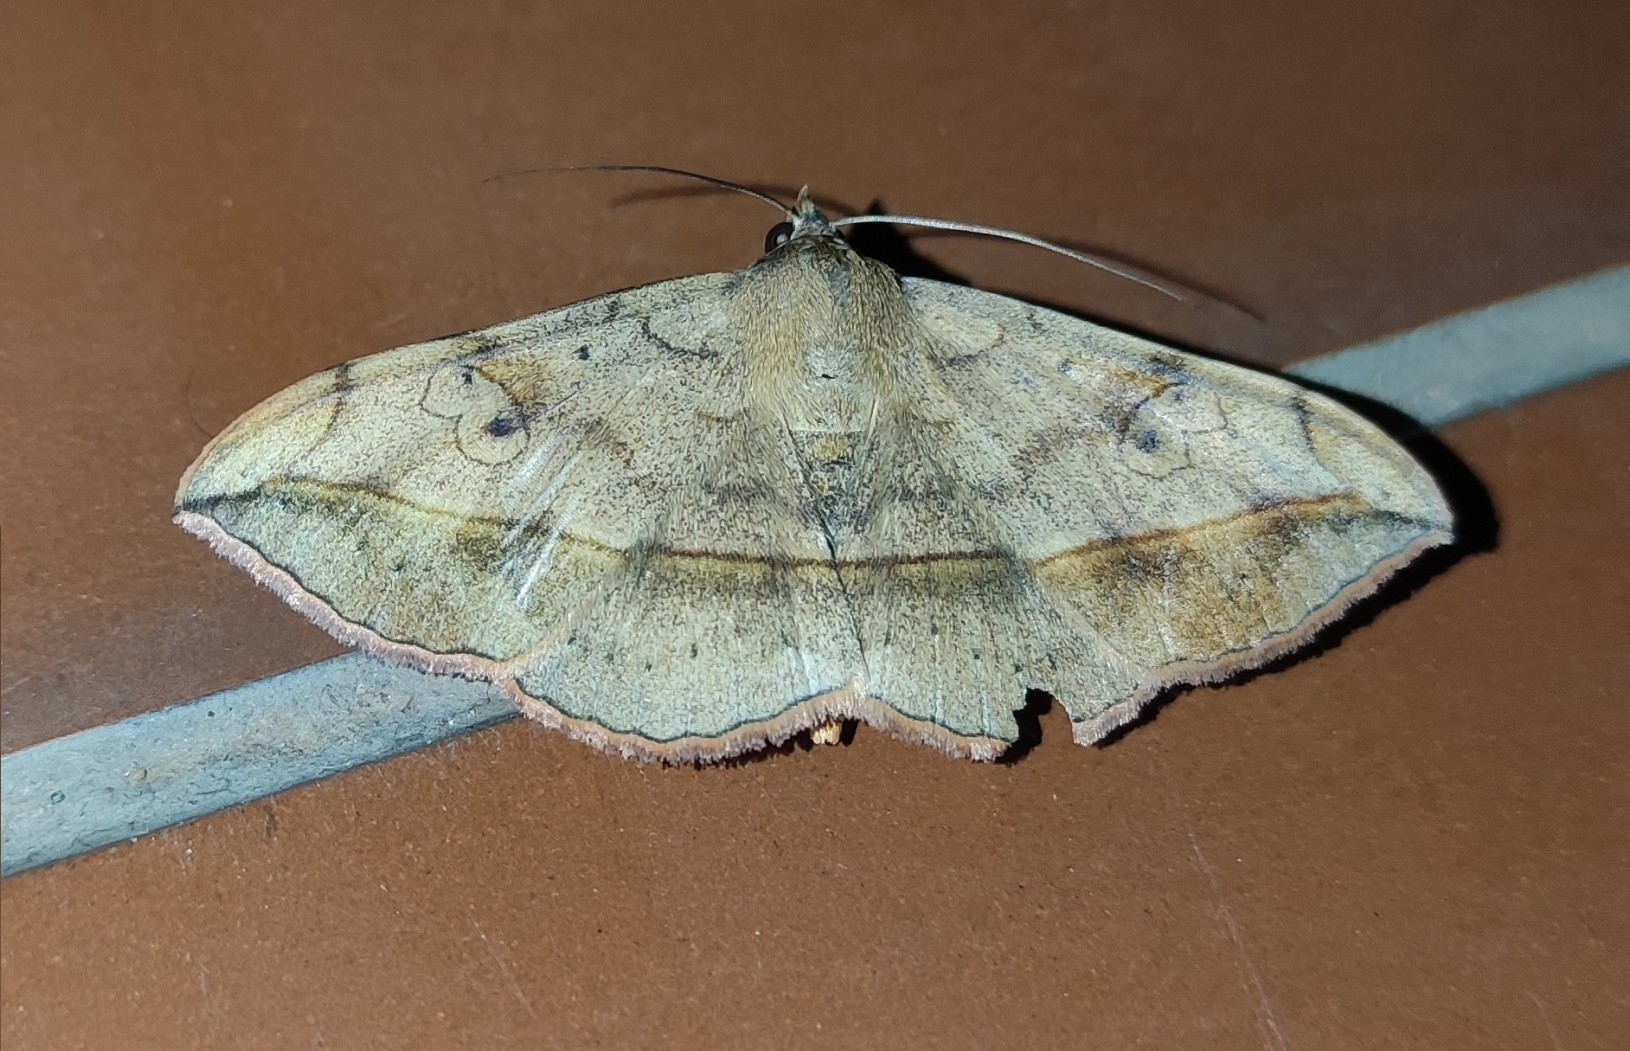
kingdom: Animalia
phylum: Arthropoda
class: Insecta
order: Lepidoptera
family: Erebidae
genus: Anticarsia
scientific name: Anticarsia irrorata
